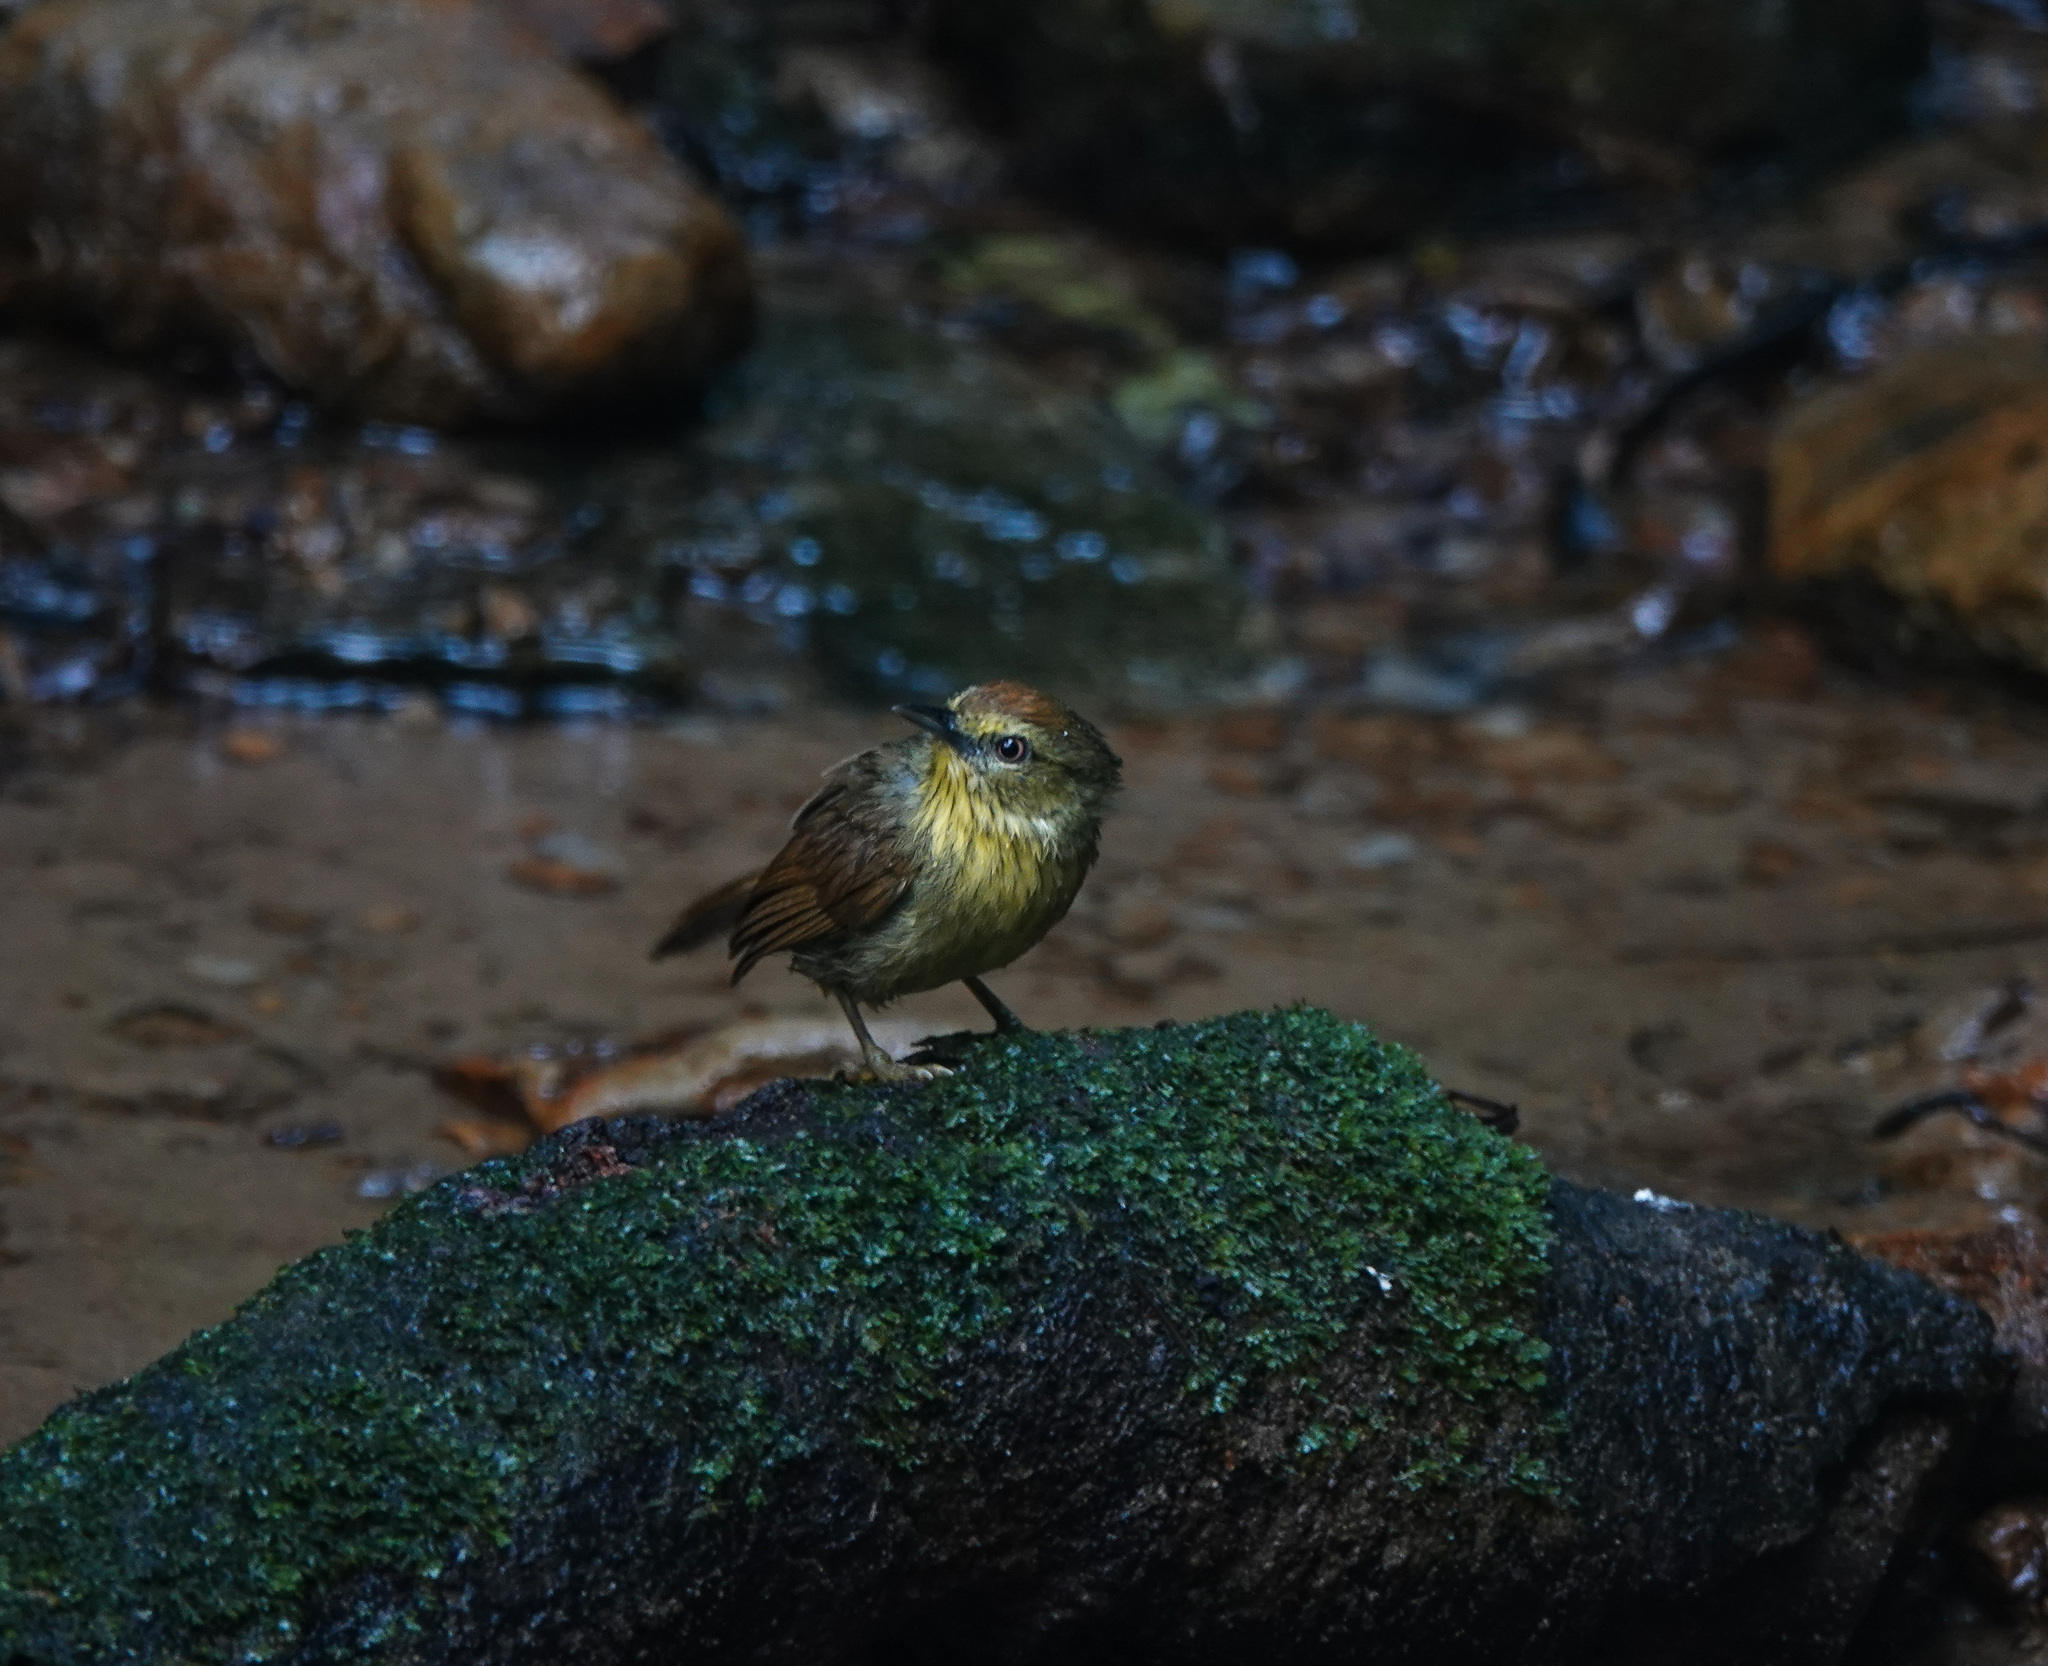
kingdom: Animalia
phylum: Chordata
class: Aves
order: Passeriformes
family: Timaliidae
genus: Macronus
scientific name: Macronus gularis
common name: Striped tit-babbler
